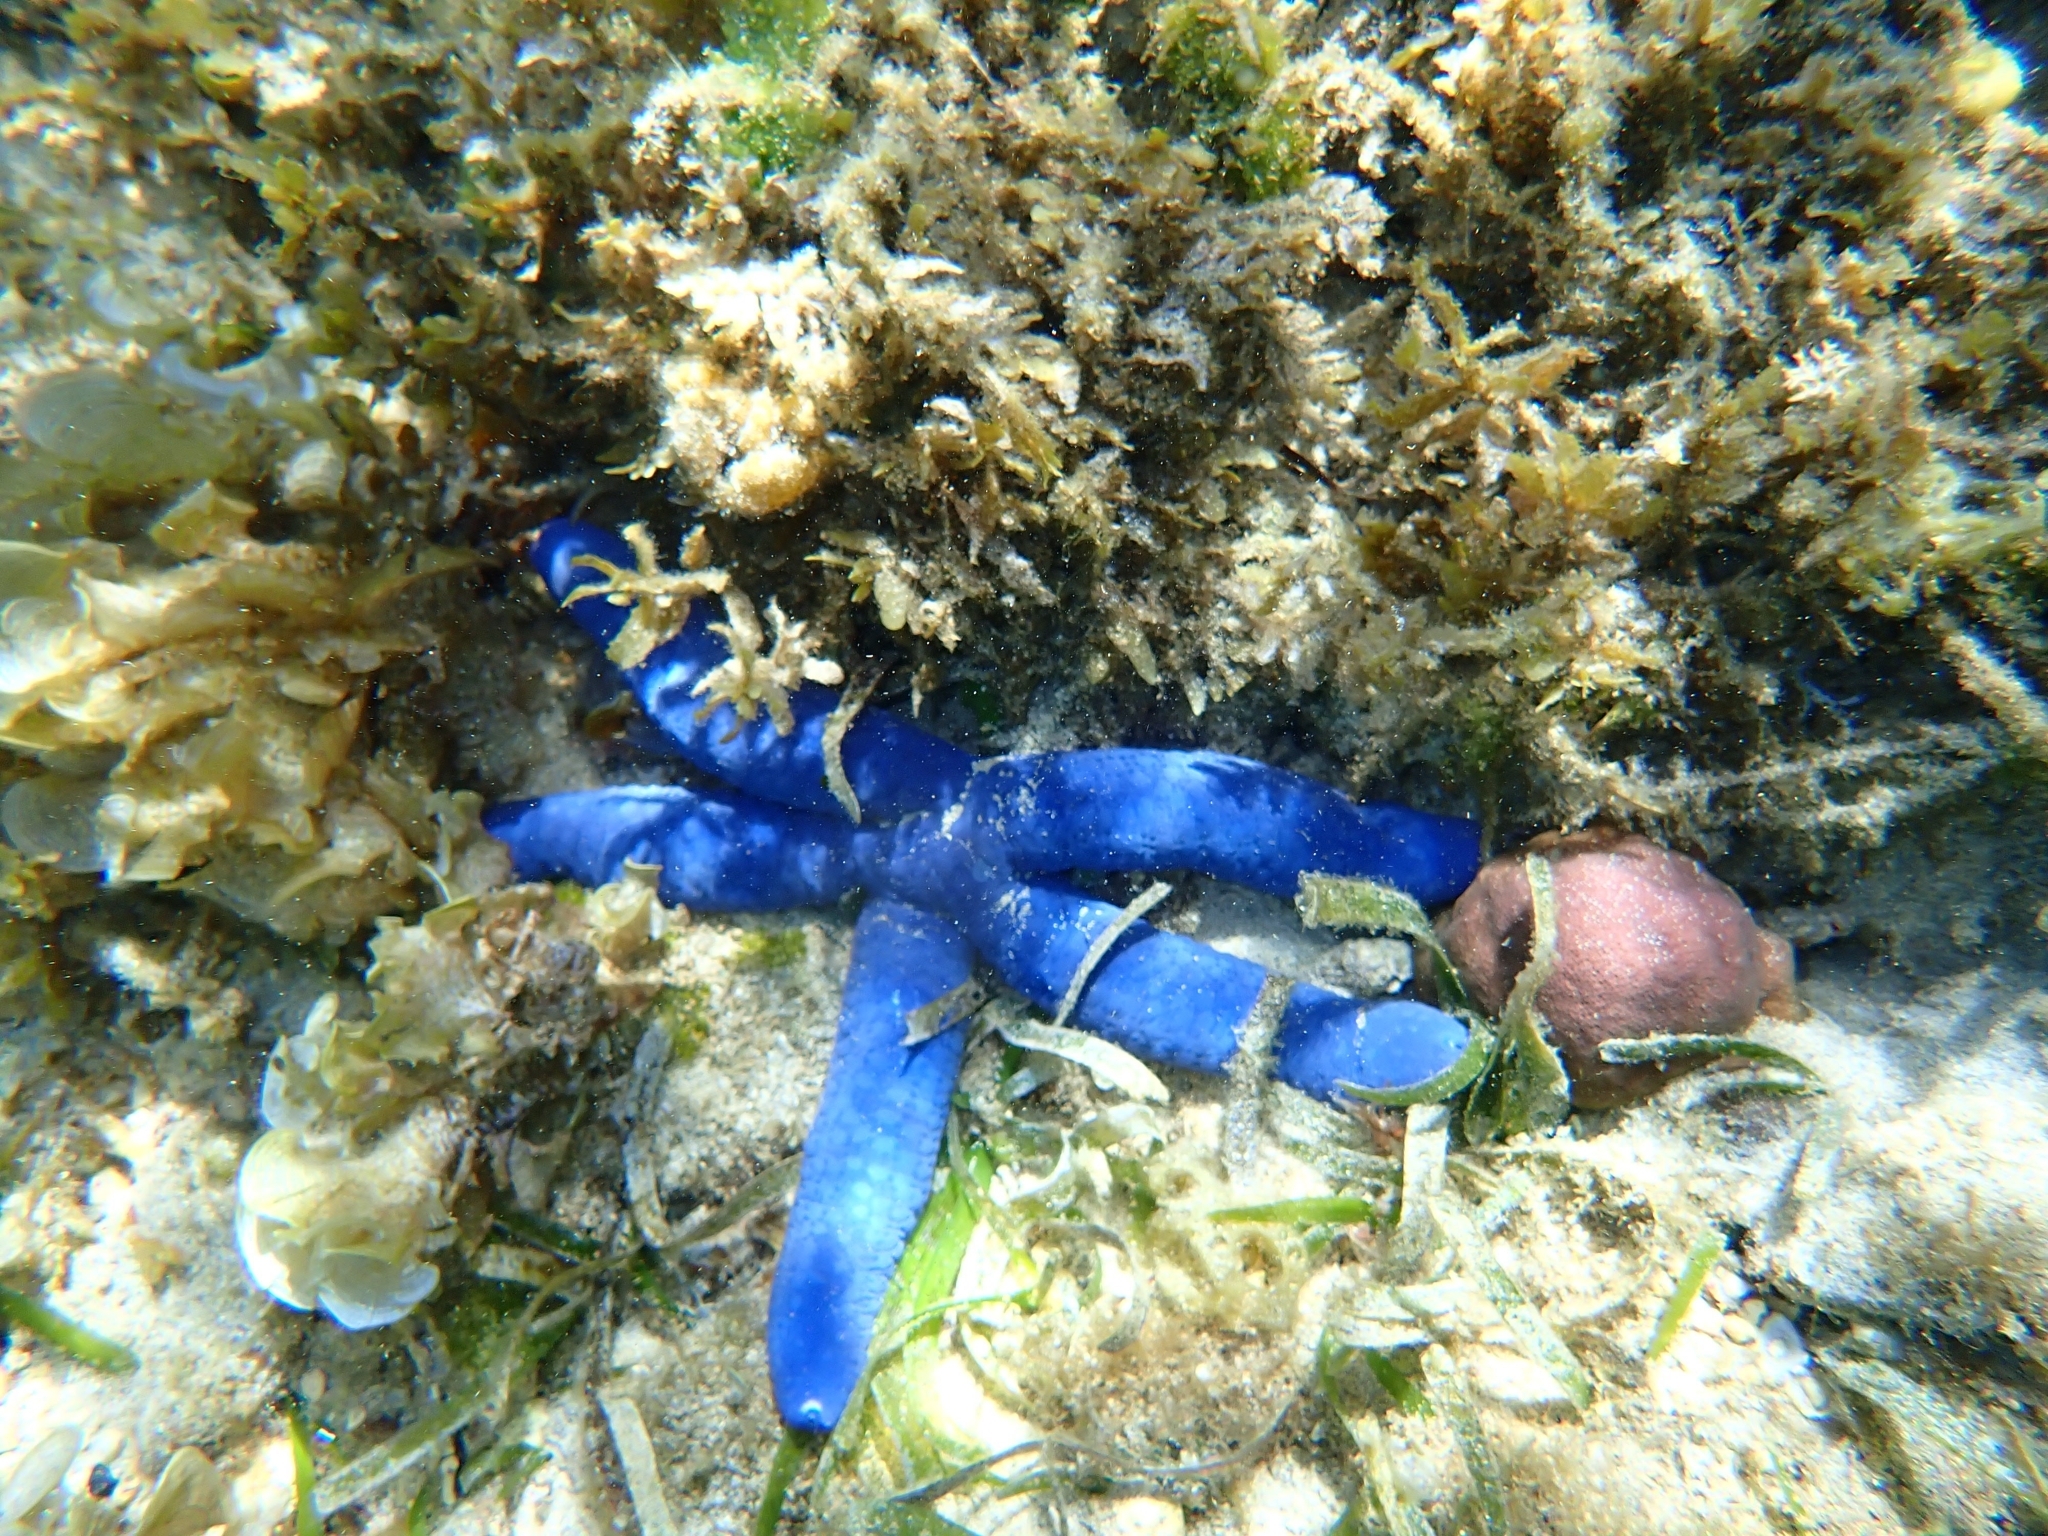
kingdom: Animalia
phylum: Echinodermata
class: Asteroidea
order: Valvatida
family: Ophidiasteridae
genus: Linckia
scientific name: Linckia laevigata
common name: Azure sea star
